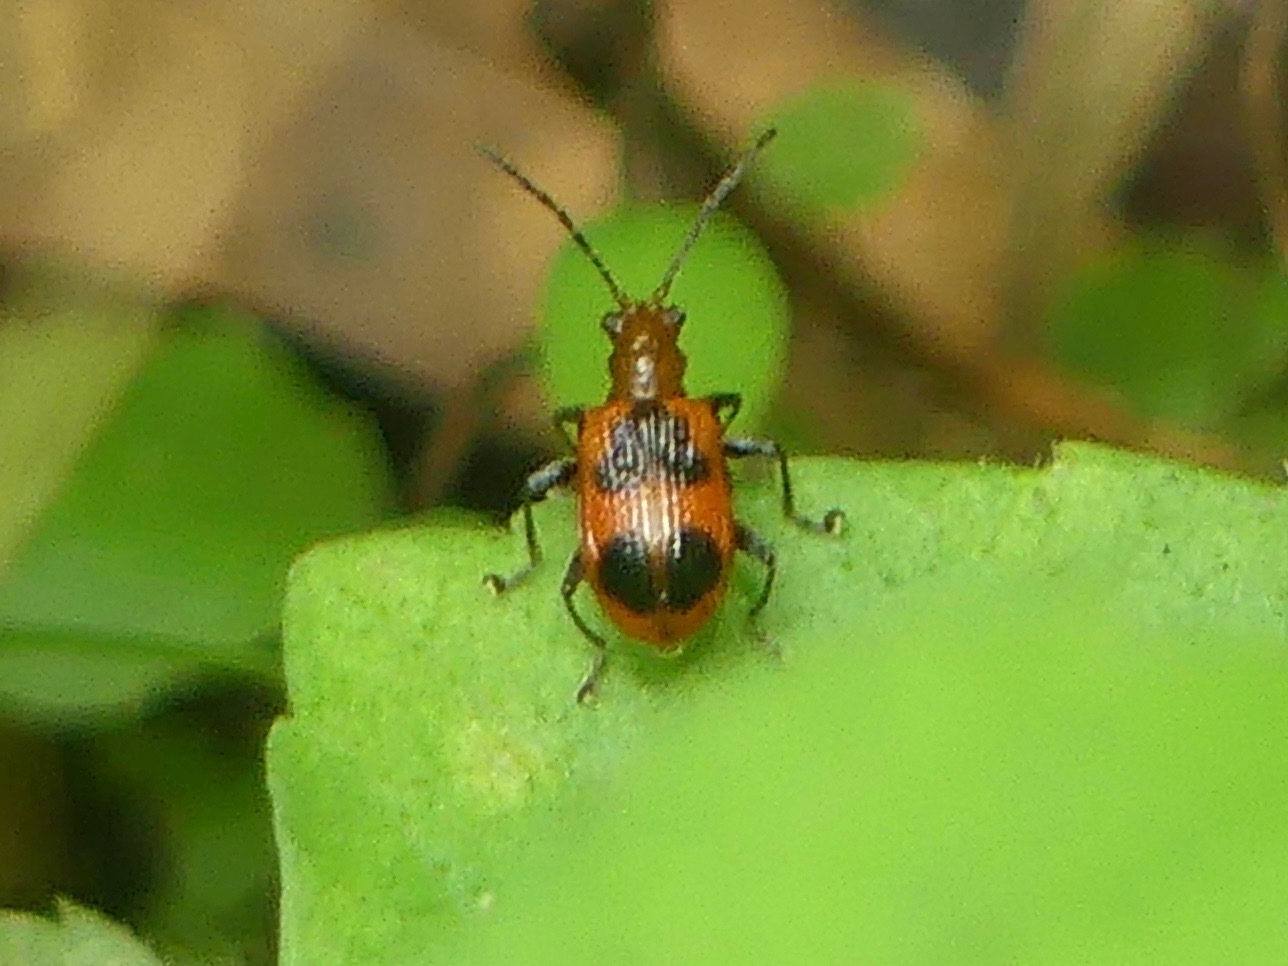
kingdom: Animalia
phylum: Arthropoda
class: Insecta
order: Coleoptera
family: Chrysomelidae
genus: Neolema
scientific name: Neolema cordata
